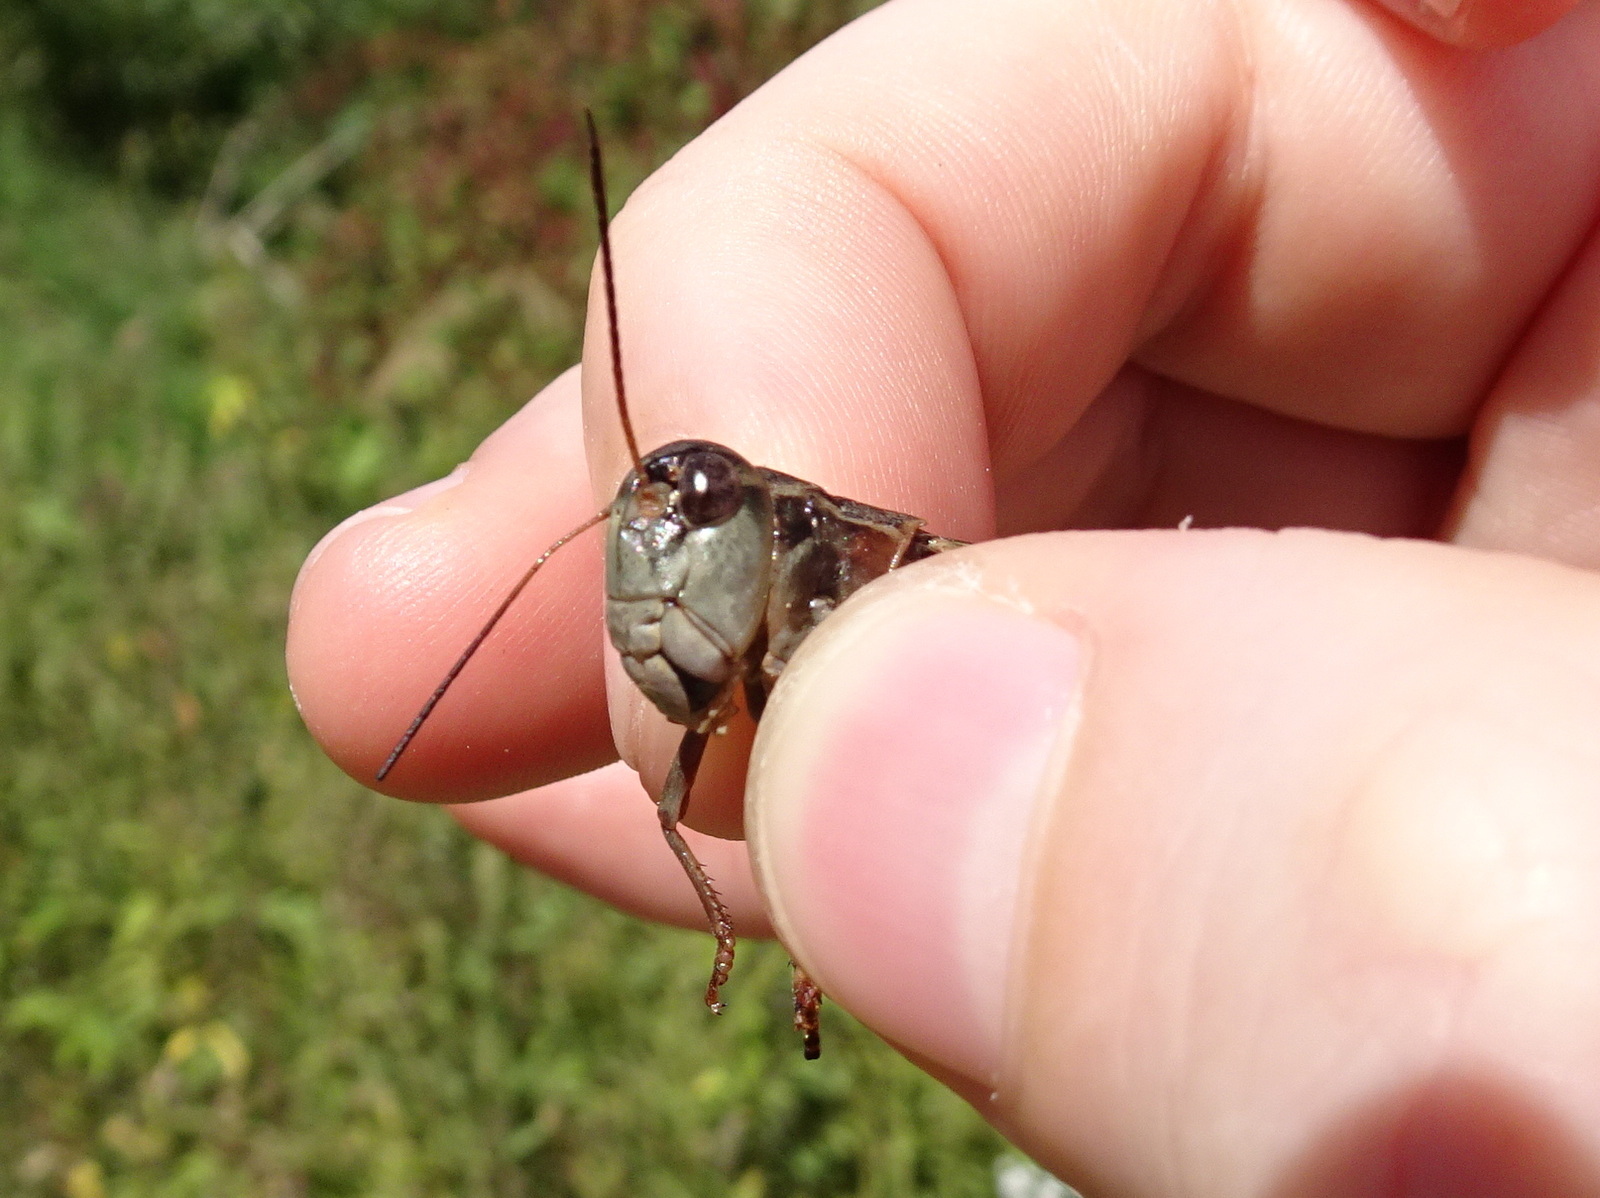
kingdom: Animalia
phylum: Arthropoda
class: Insecta
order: Orthoptera
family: Acrididae
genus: Hippiscus
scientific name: Hippiscus ocelote
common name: Wrinkled grasshopper
